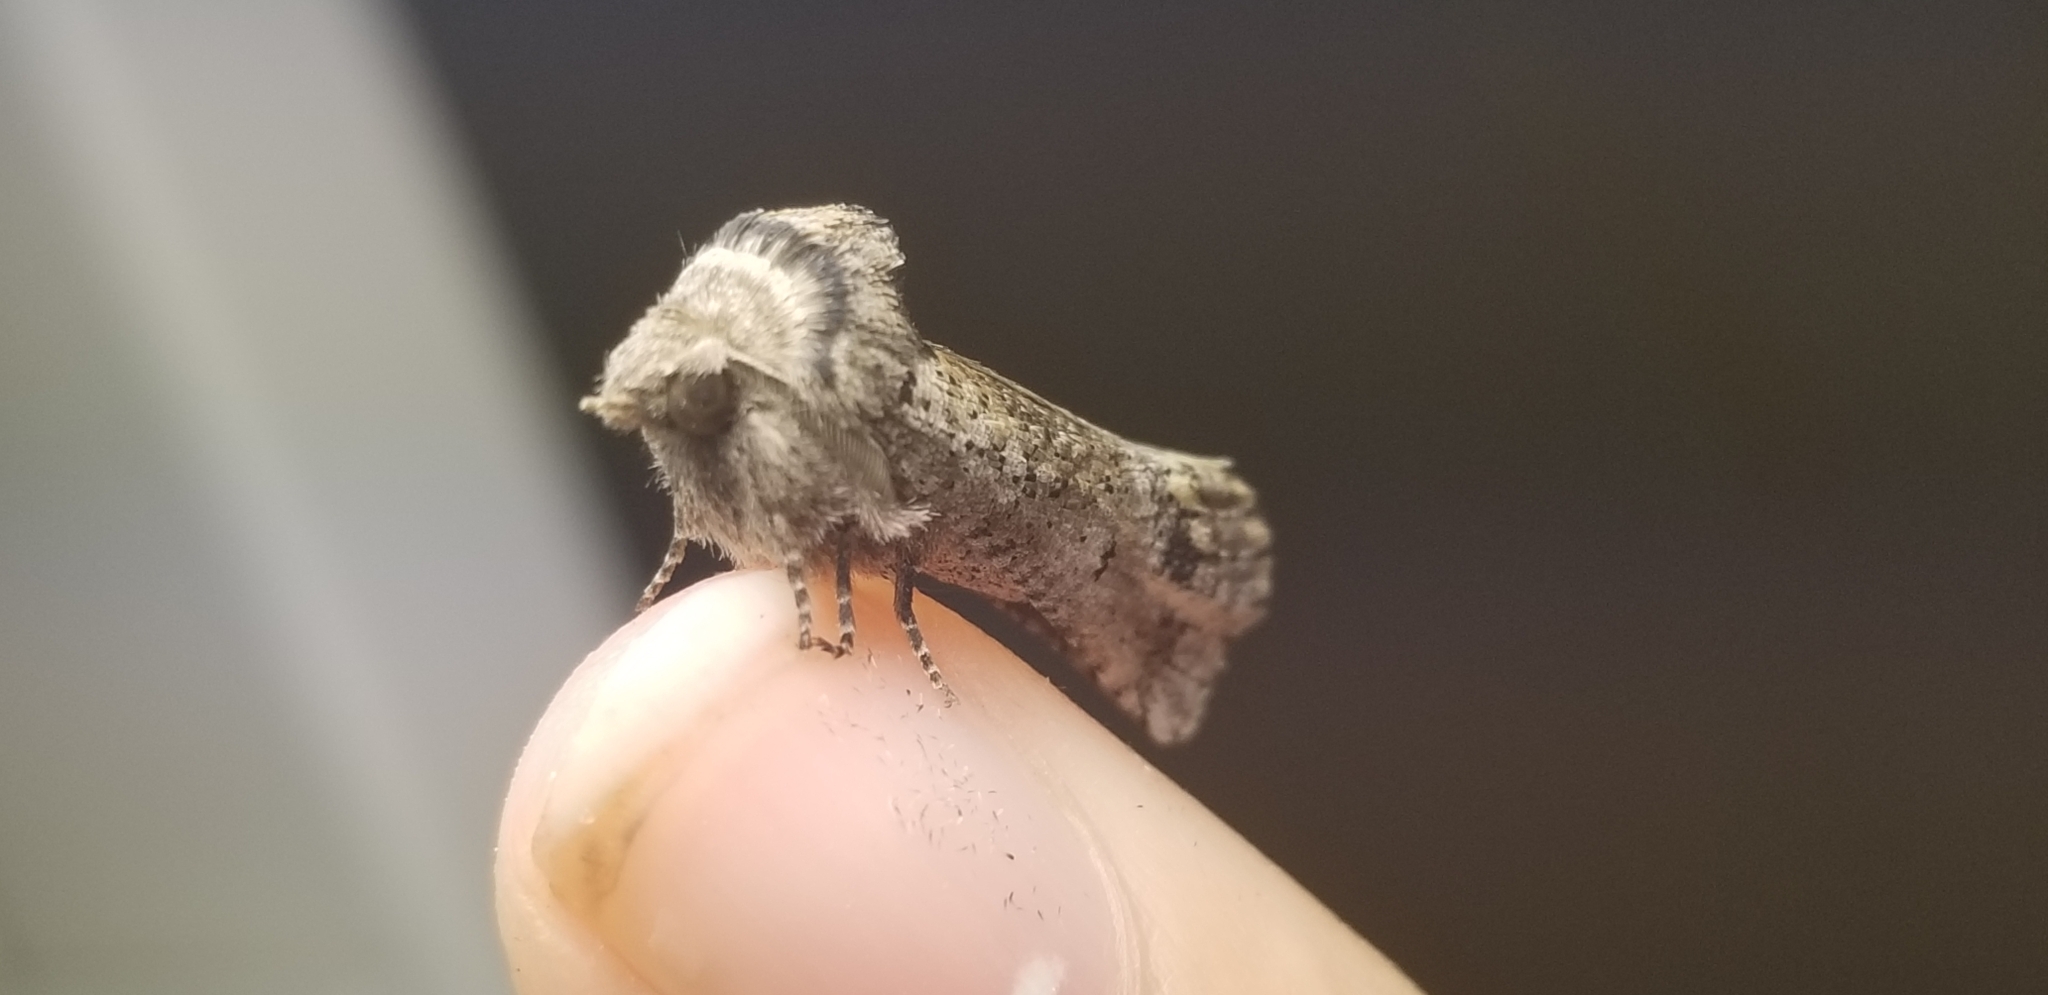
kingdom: Animalia
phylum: Arthropoda
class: Insecta
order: Lepidoptera
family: Erebidae
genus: Aon
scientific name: Aon noctuiformis
